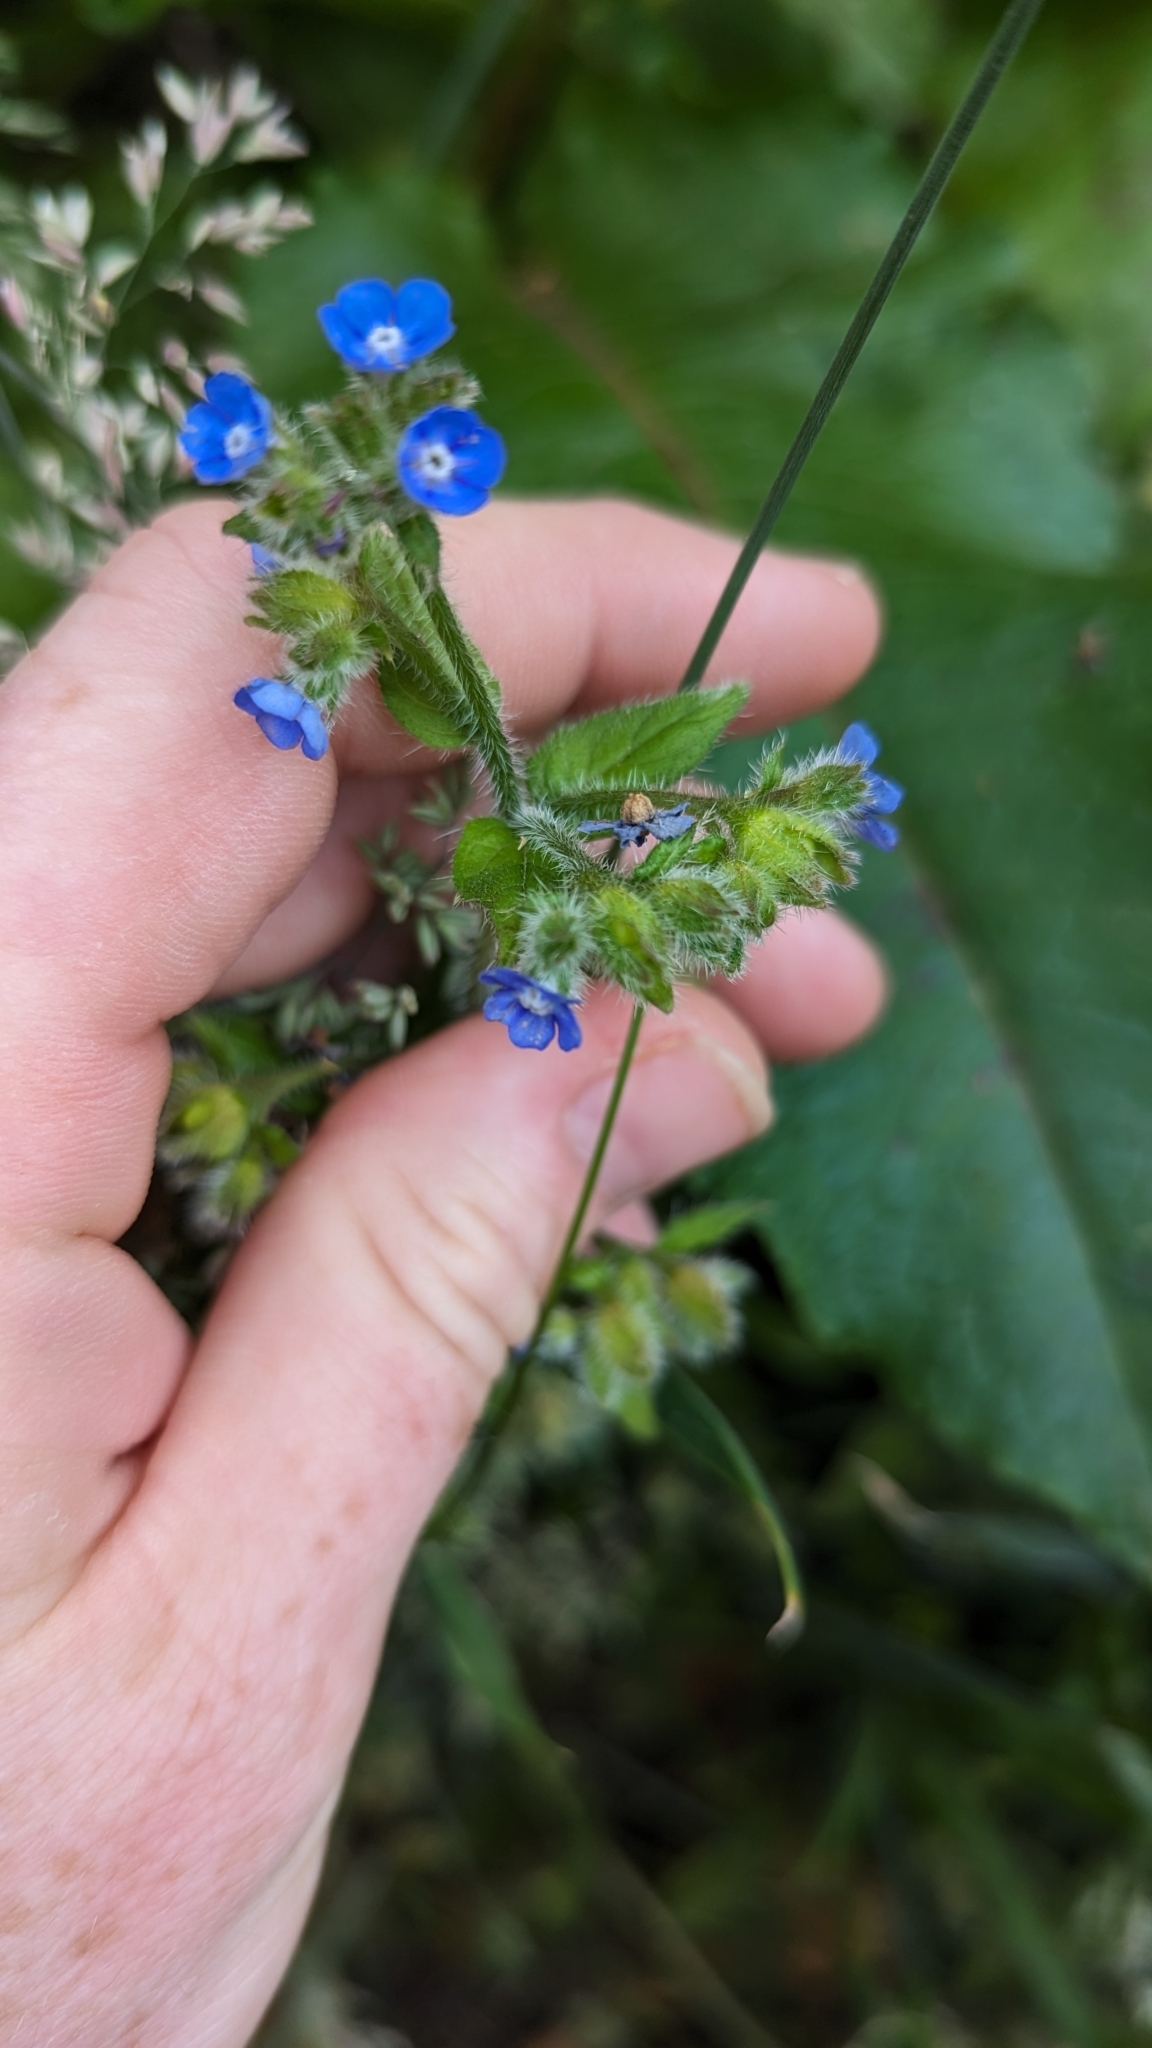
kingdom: Plantae
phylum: Tracheophyta
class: Magnoliopsida
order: Boraginales
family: Boraginaceae
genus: Pentaglottis
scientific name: Pentaglottis sempervirens
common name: Green alkanet
